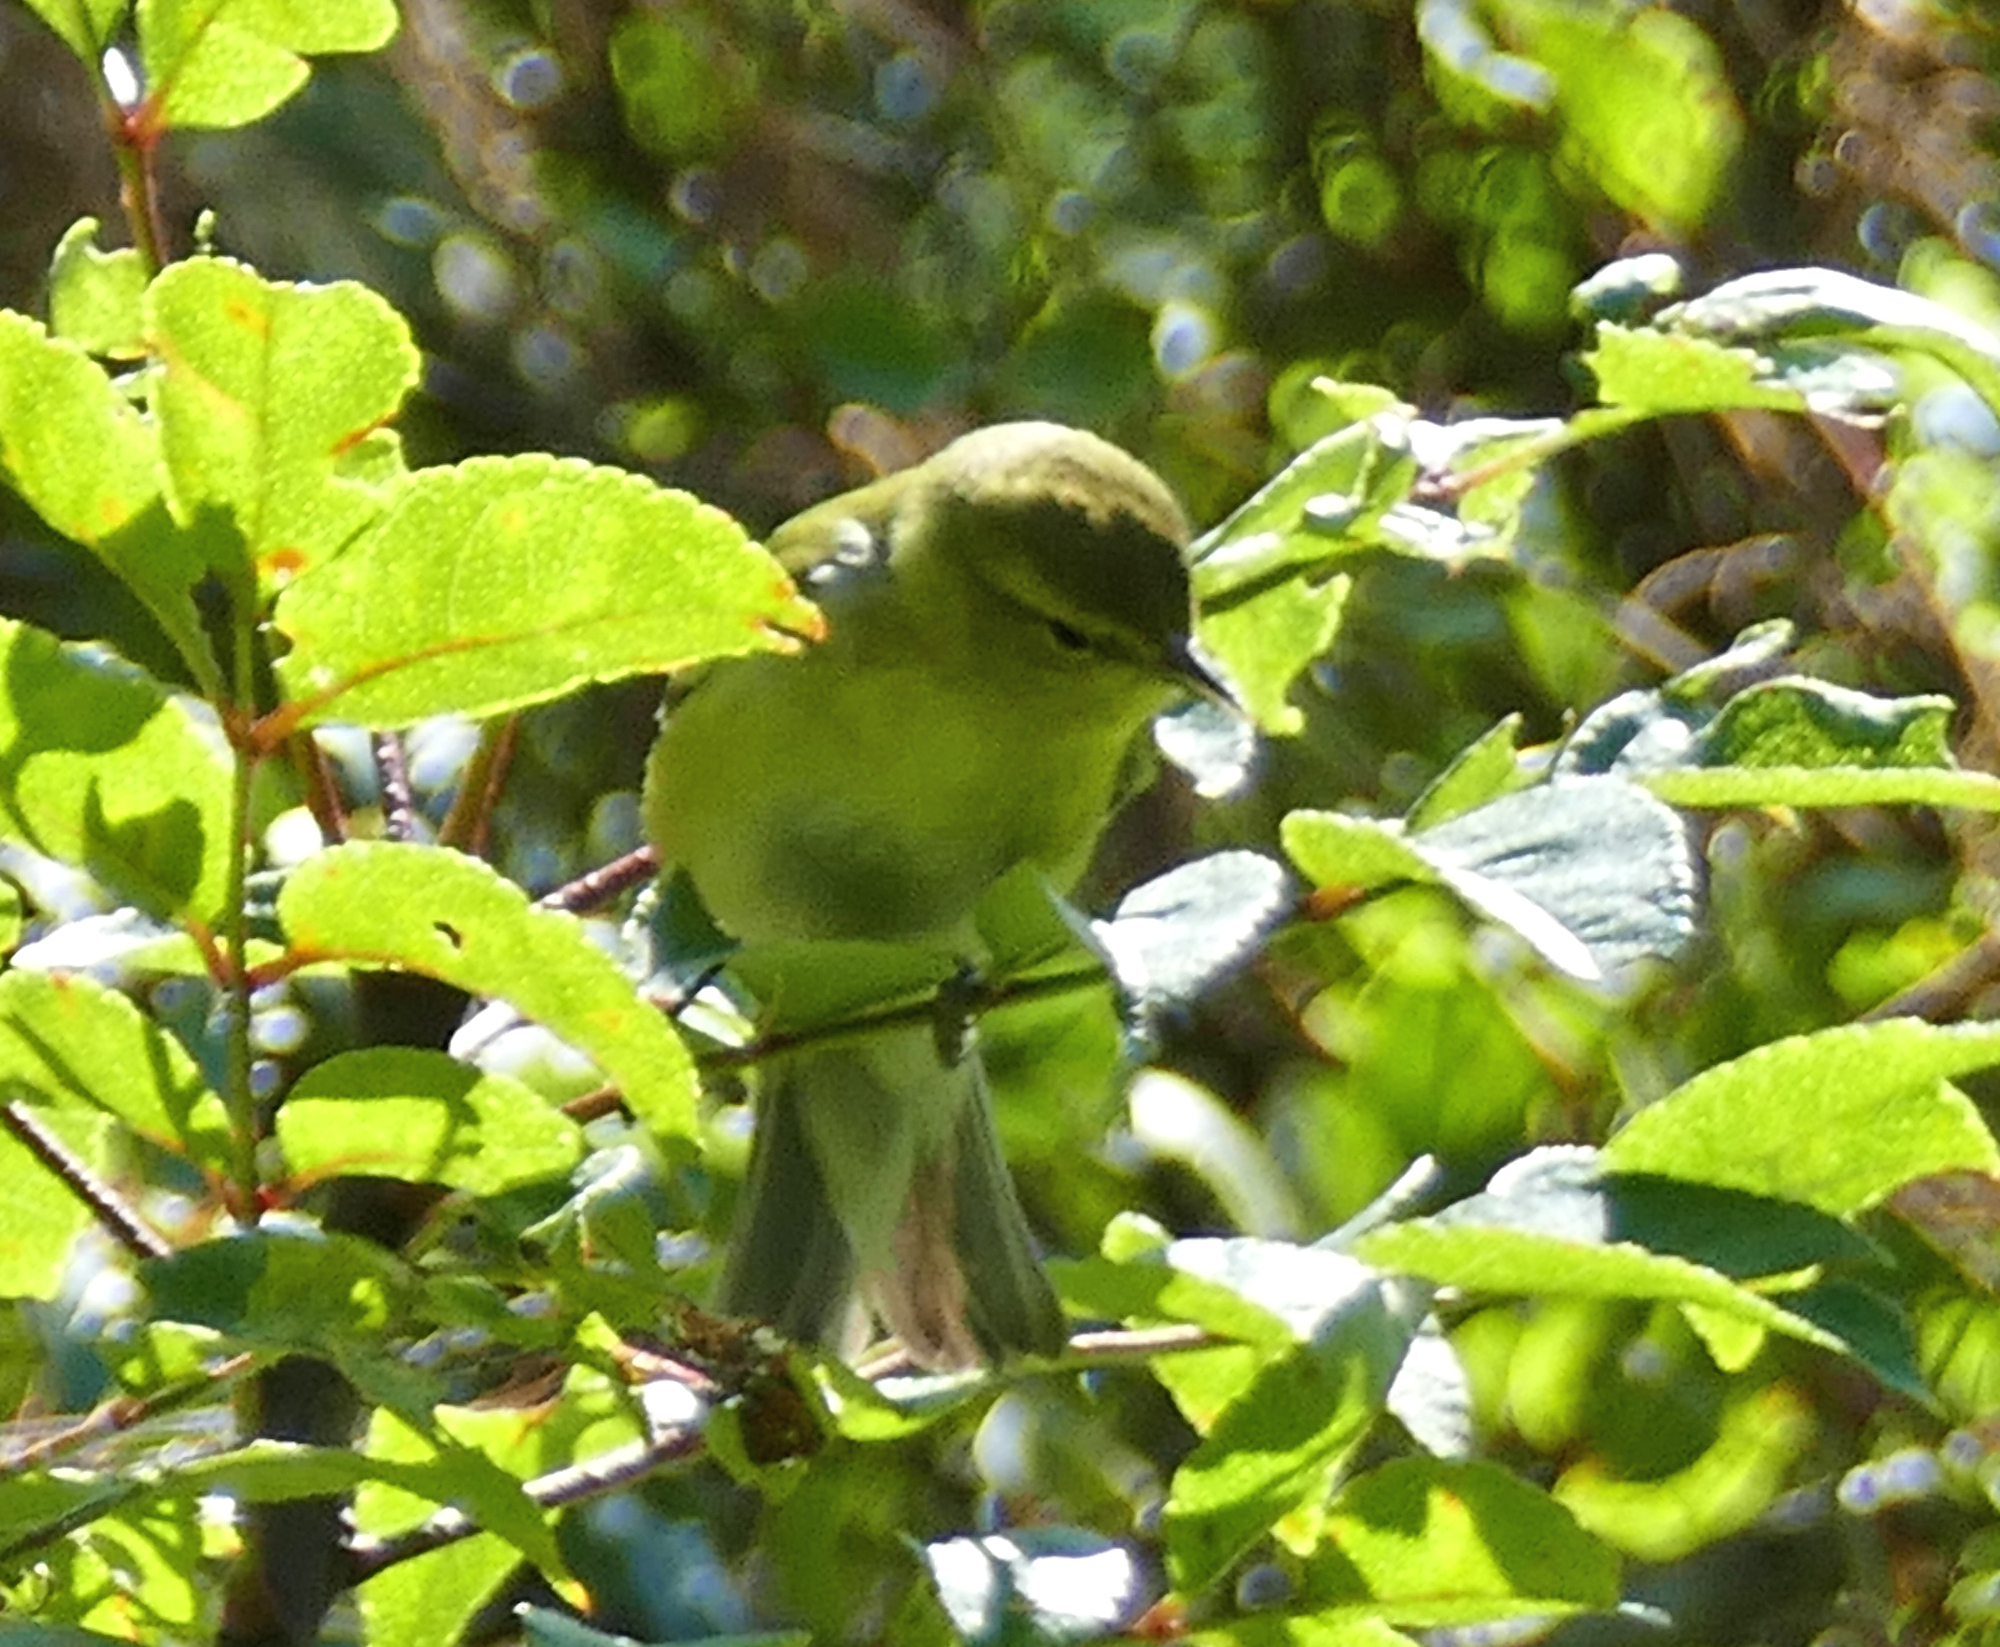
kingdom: Animalia
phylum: Chordata
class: Aves
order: Passeriformes
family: Parulidae
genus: Leiothlypis
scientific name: Leiothlypis peregrina
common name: Tennessee warbler
